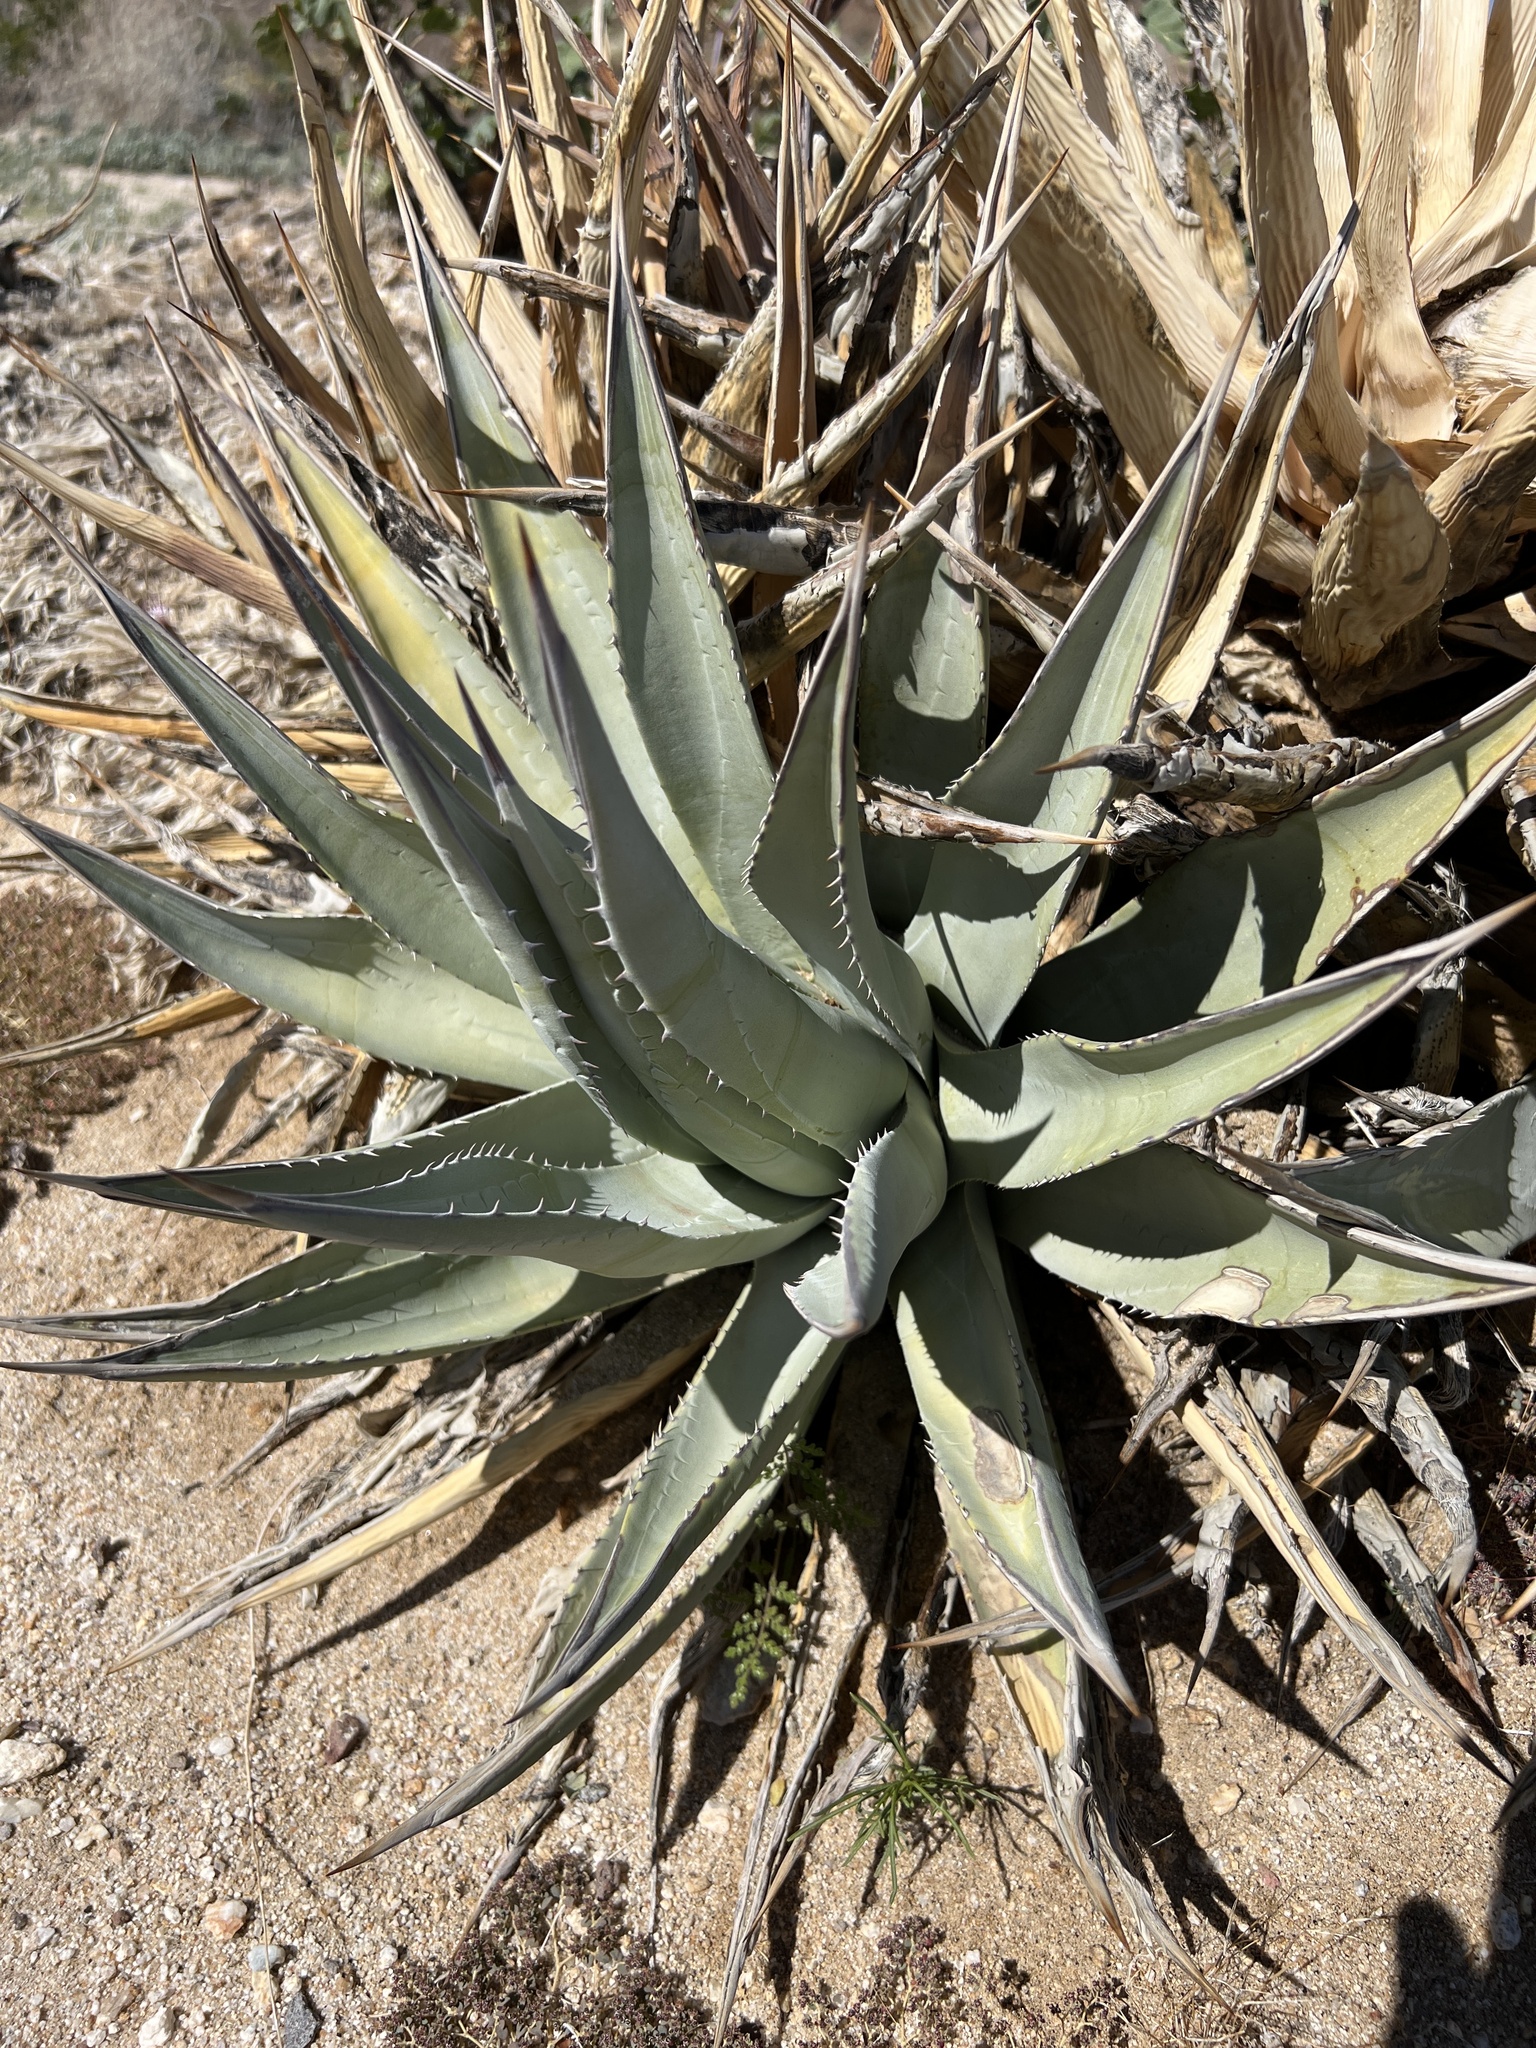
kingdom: Plantae
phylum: Tracheophyta
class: Liliopsida
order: Asparagales
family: Asparagaceae
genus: Agave
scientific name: Agave deserti
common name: Desert agave
